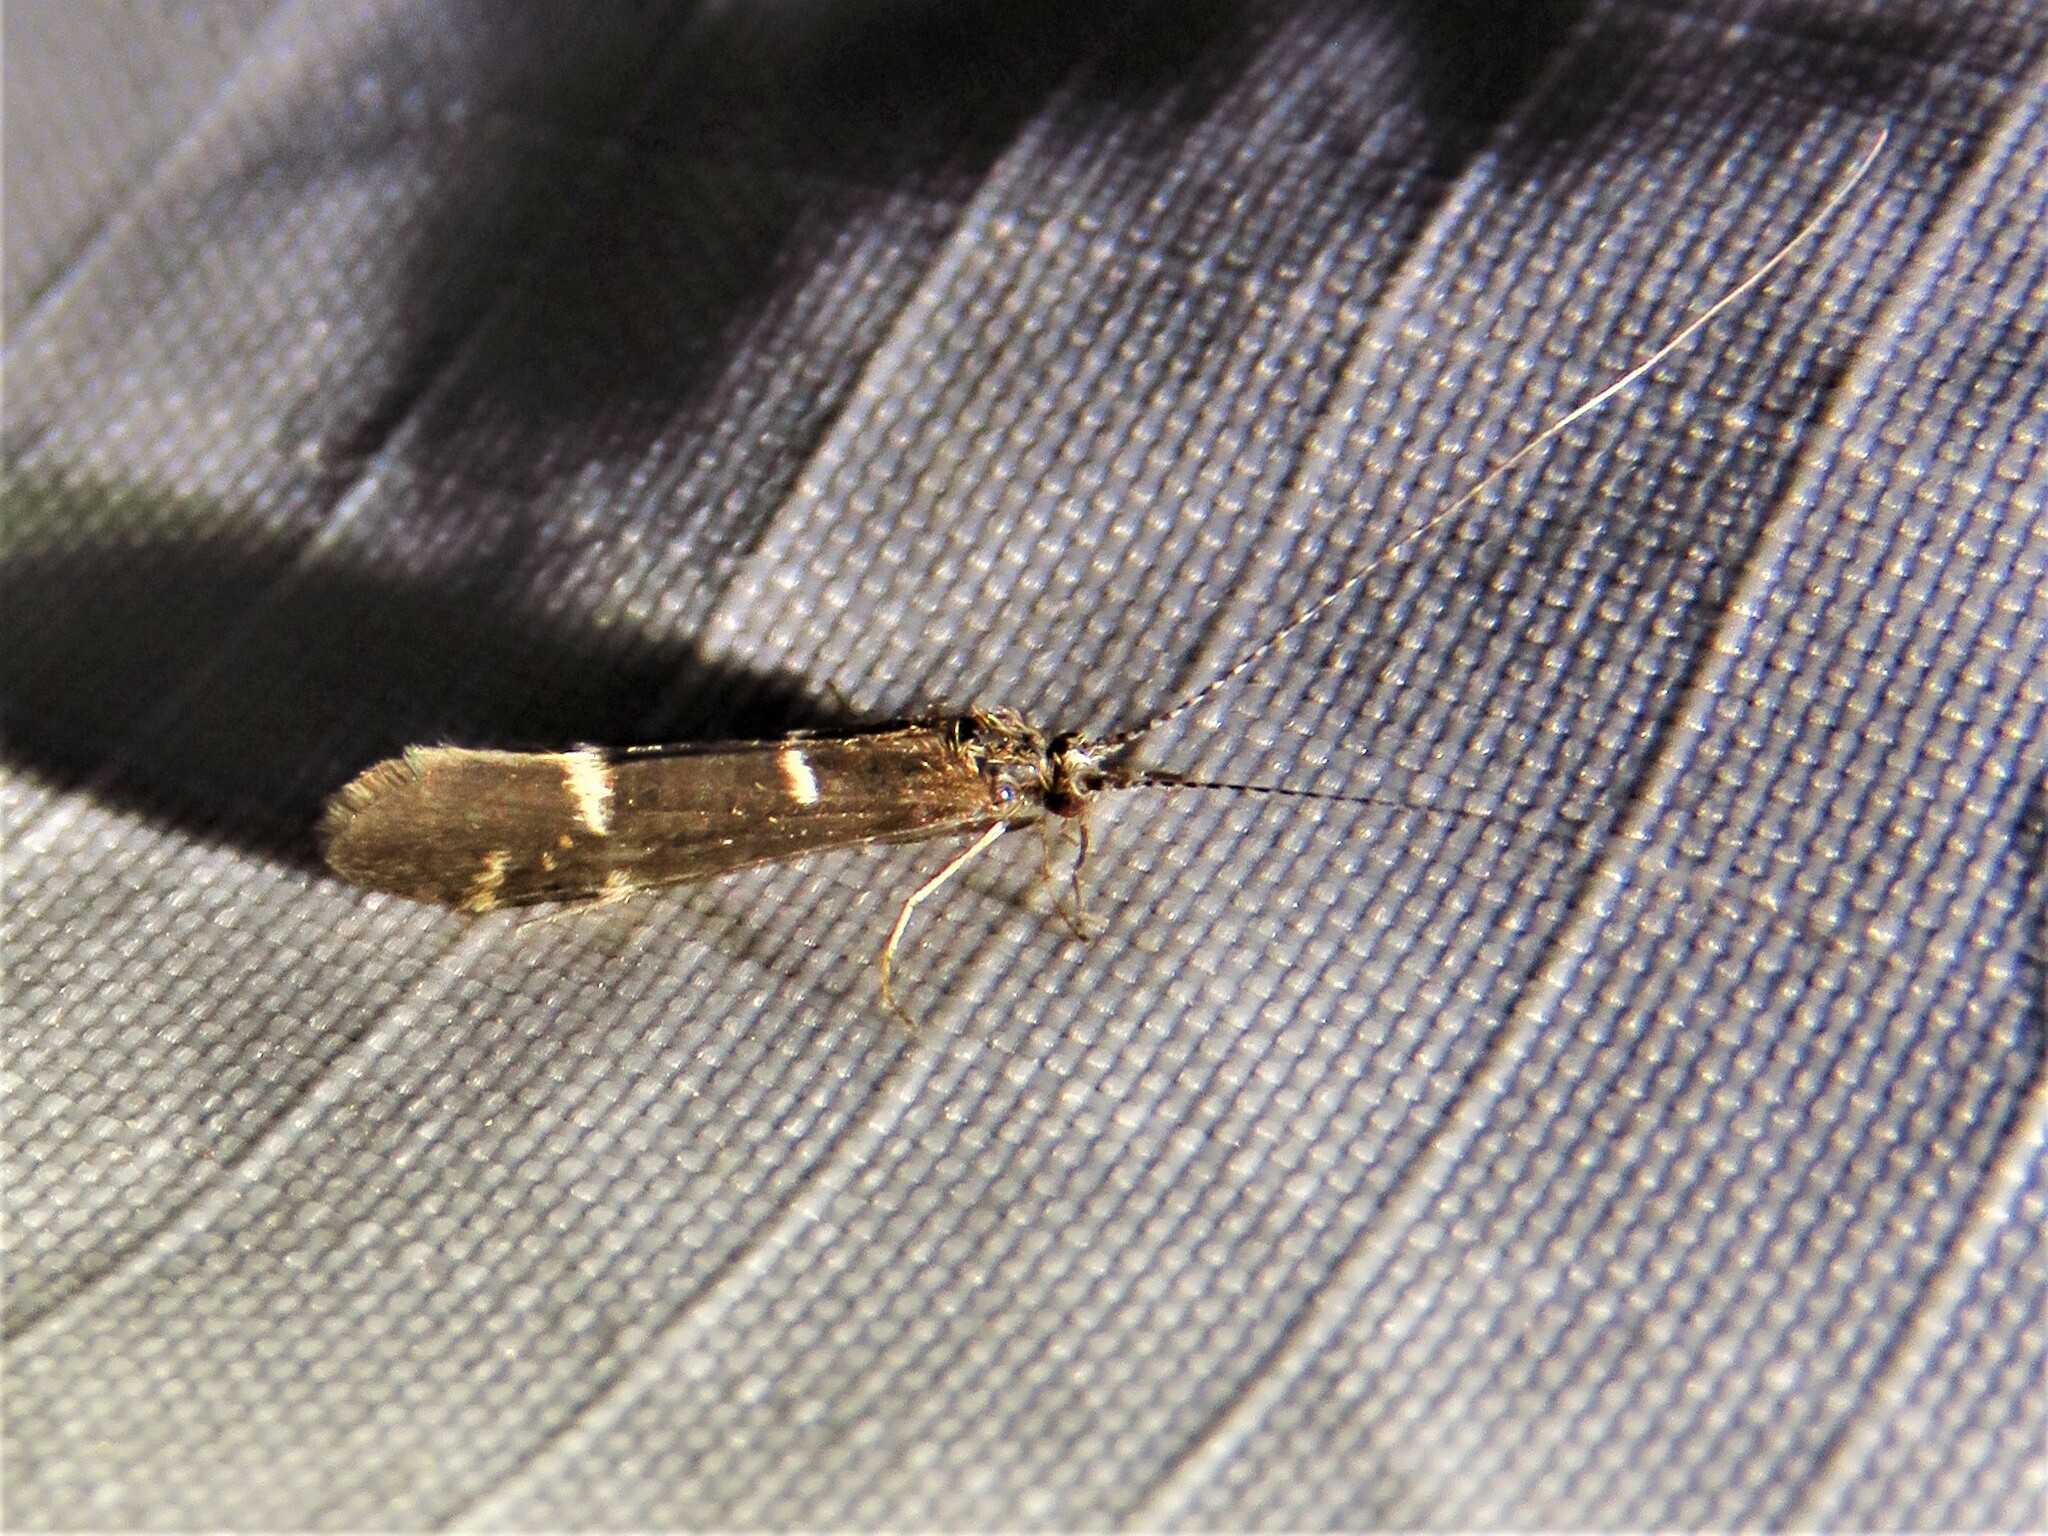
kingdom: Animalia
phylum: Arthropoda
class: Insecta
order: Trichoptera
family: Leptoceridae
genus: Athripsodes
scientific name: Athripsodes albifrons
